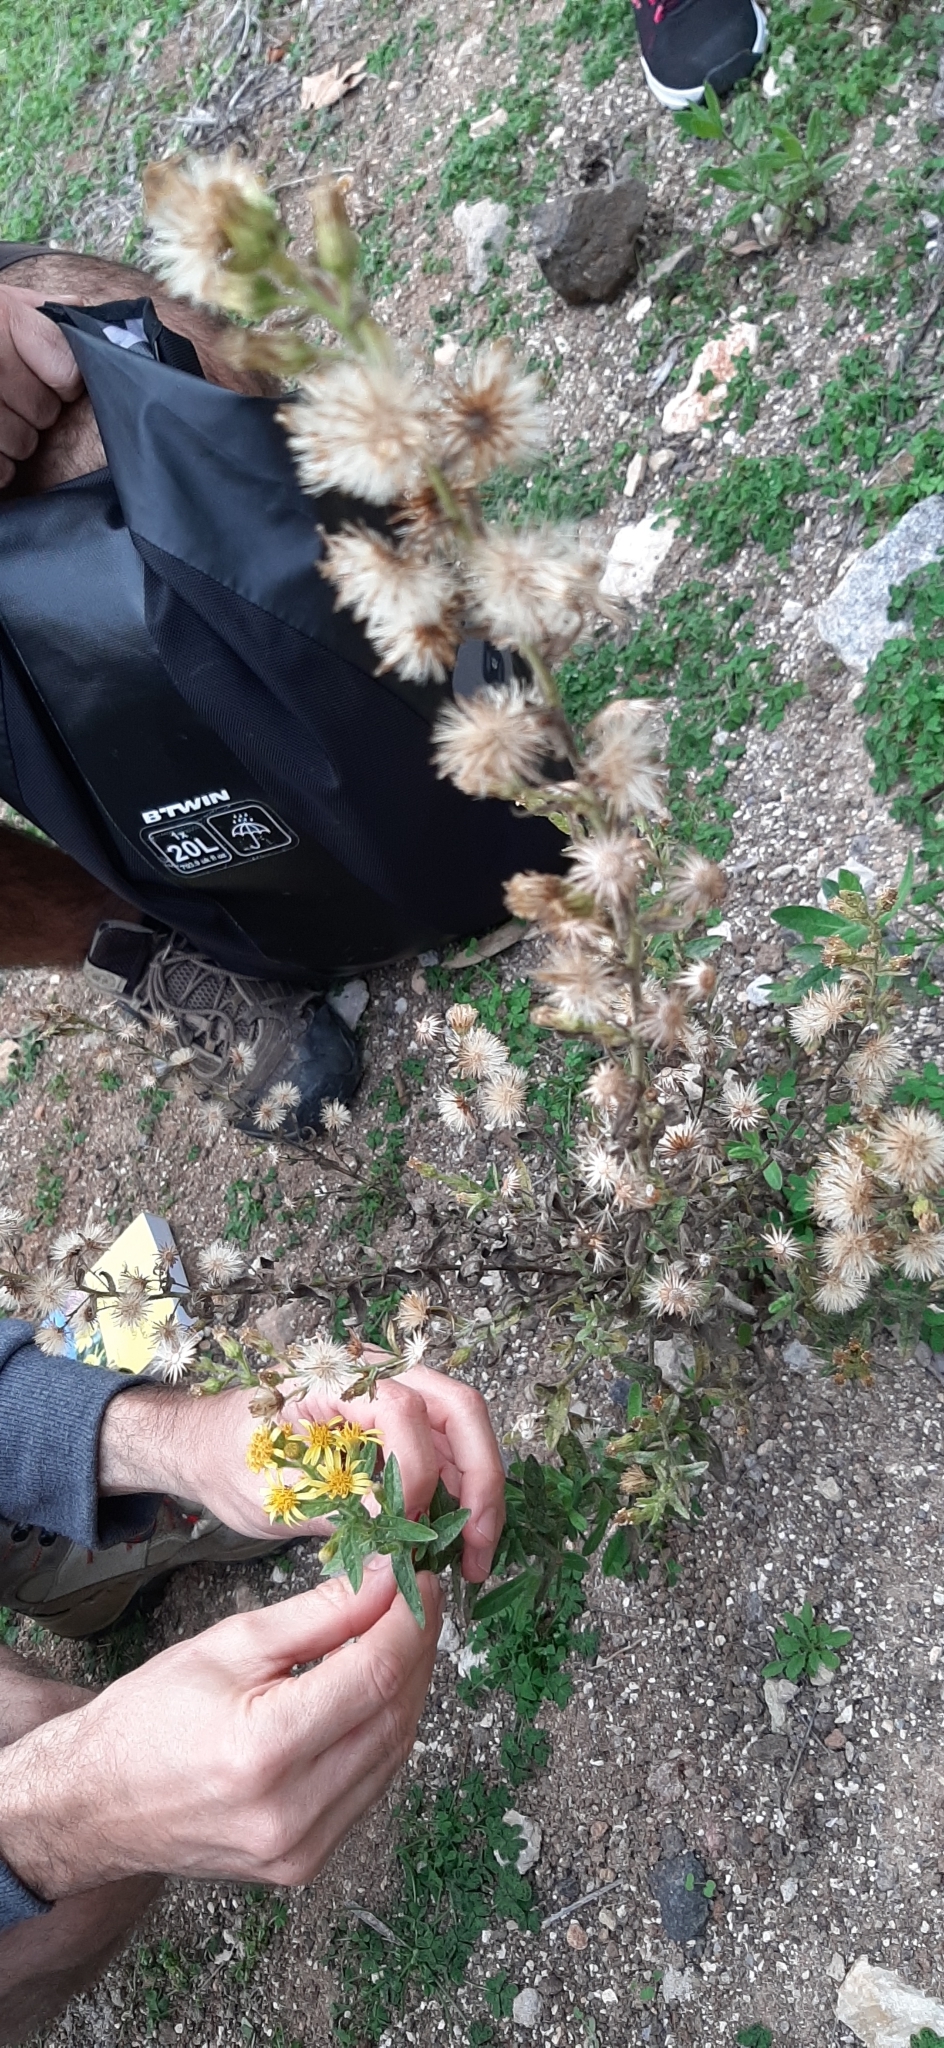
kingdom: Plantae
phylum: Tracheophyta
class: Magnoliopsida
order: Asterales
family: Asteraceae
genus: Dittrichia
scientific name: Dittrichia viscosa
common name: Woody fleabane
